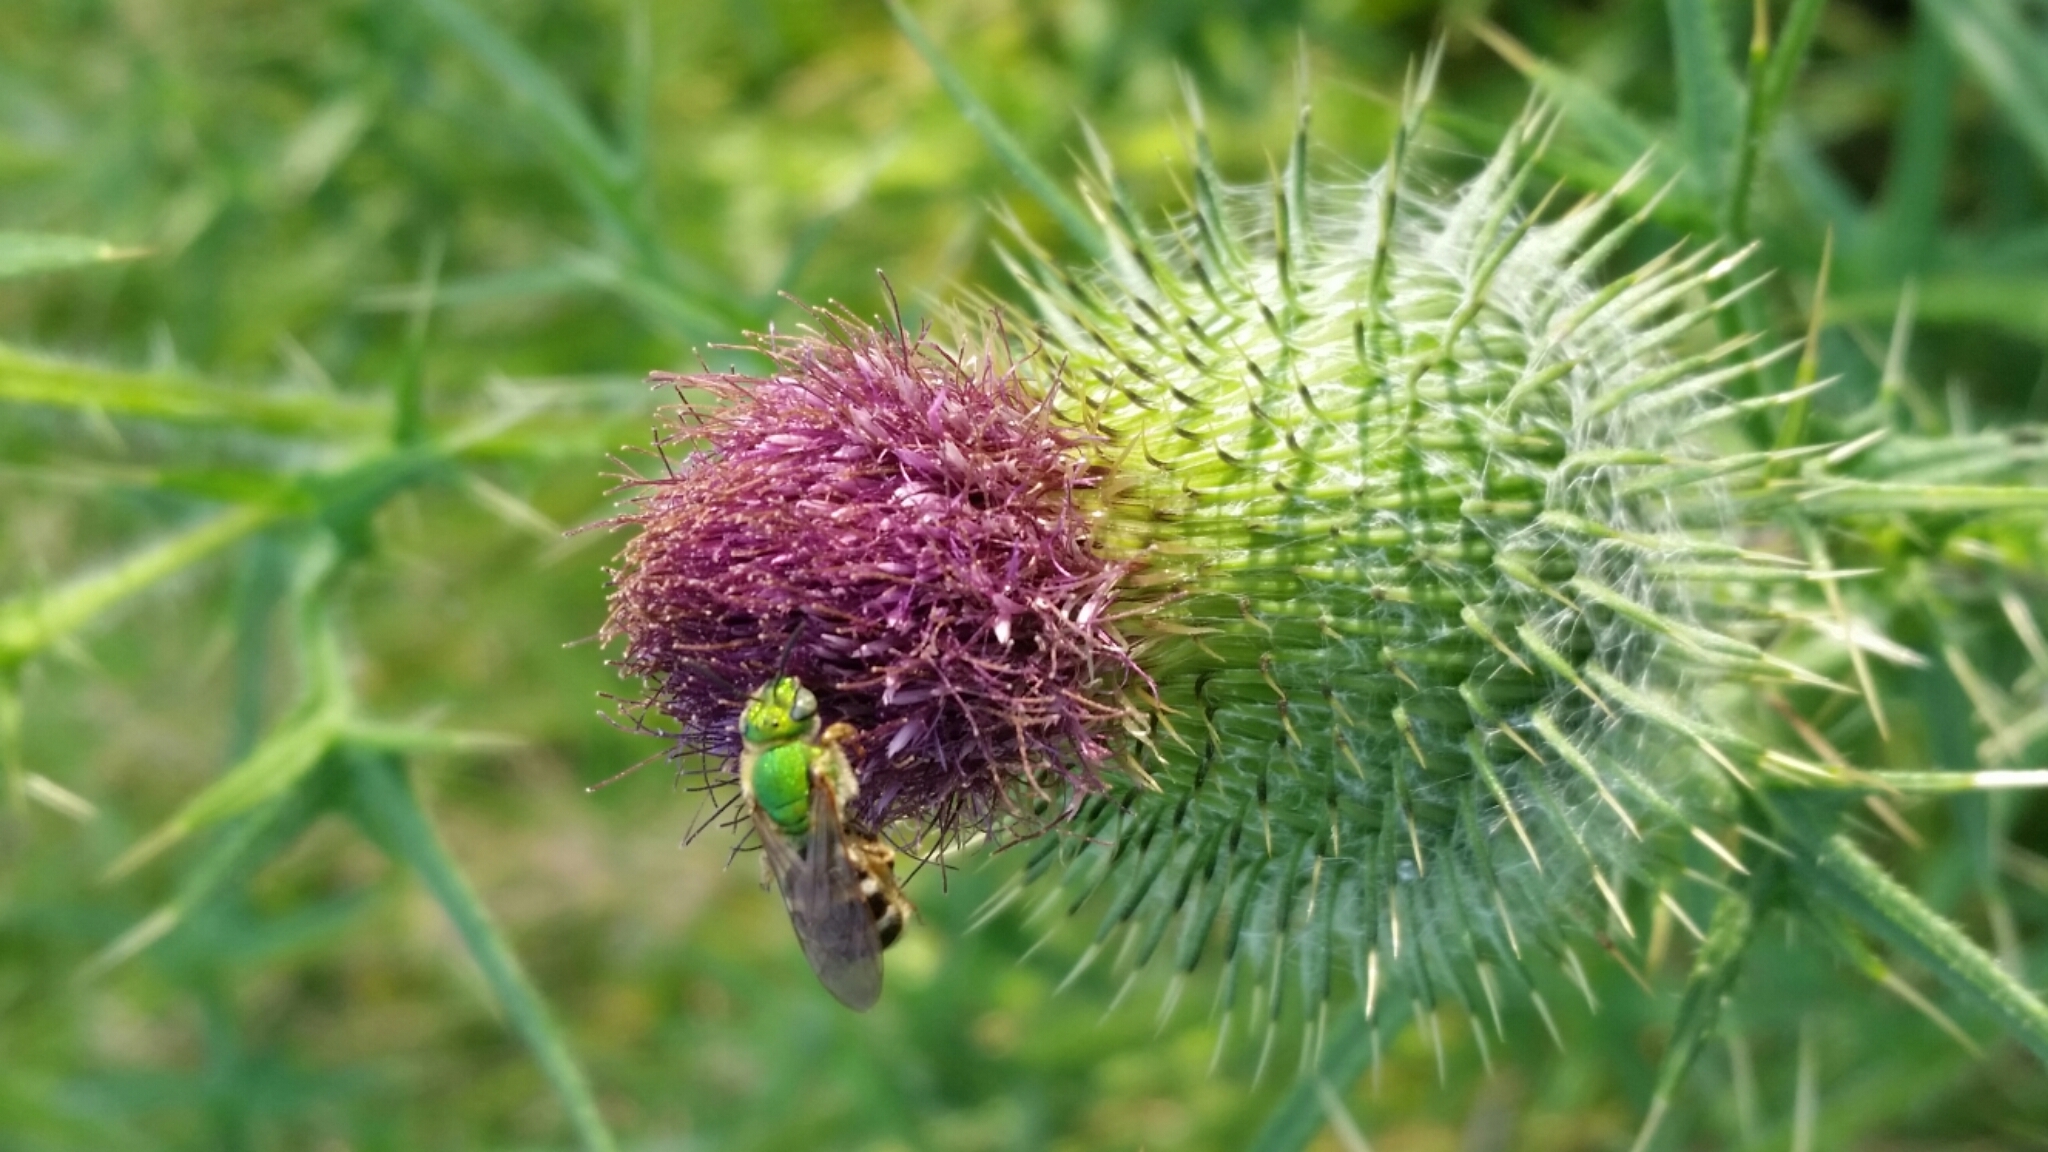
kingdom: Plantae
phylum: Tracheophyta
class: Magnoliopsida
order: Asterales
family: Asteraceae
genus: Cirsium
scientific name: Cirsium vulgare
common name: Bull thistle
